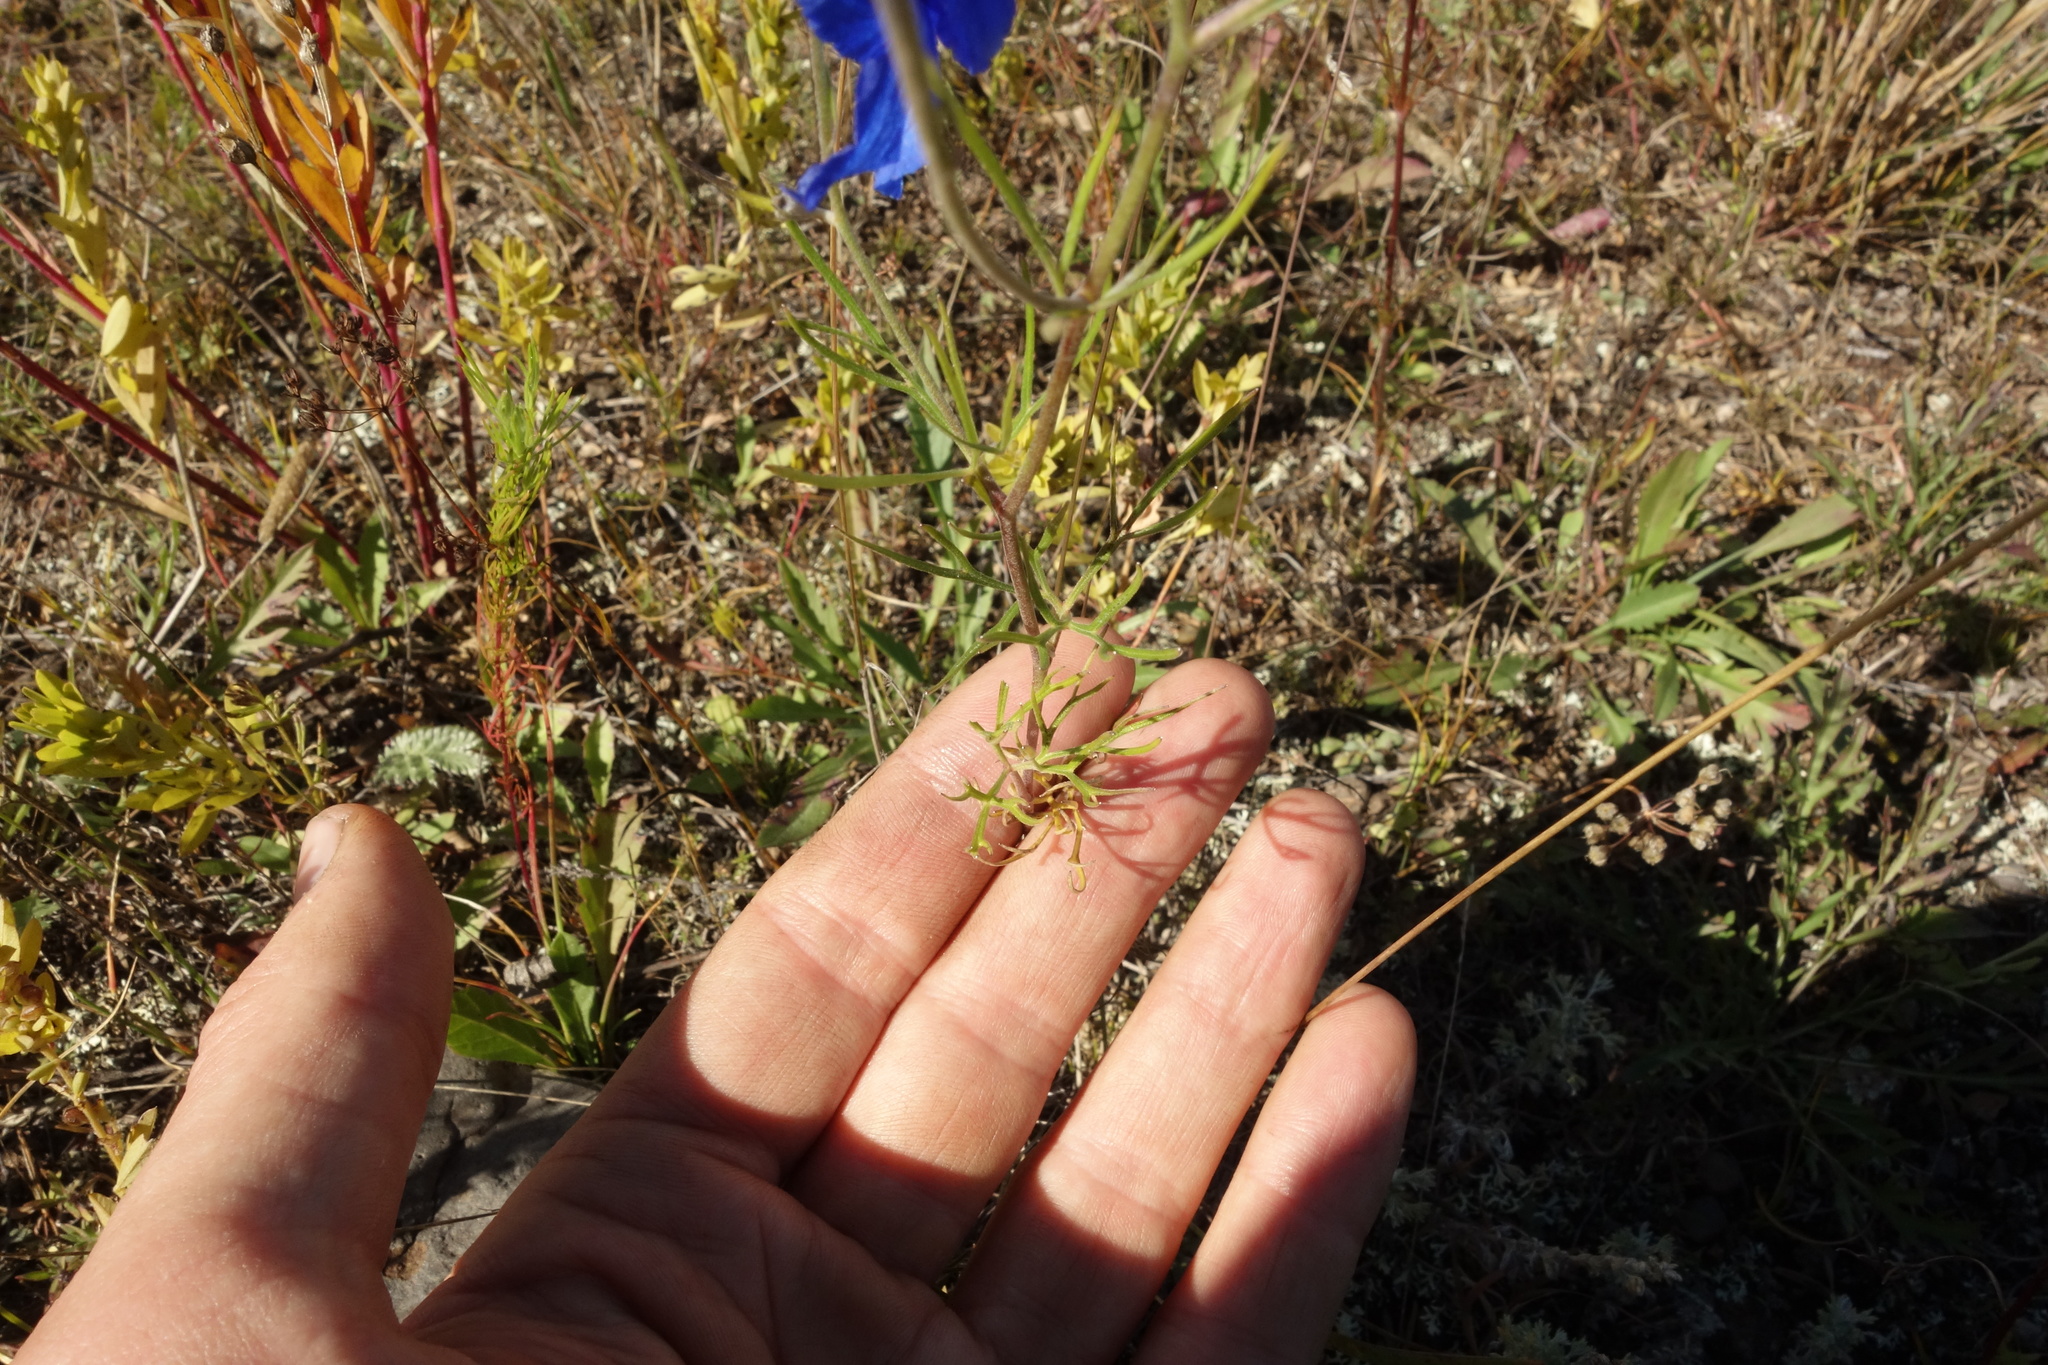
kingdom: Plantae
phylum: Tracheophyta
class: Magnoliopsida
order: Ranunculales
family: Ranunculaceae
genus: Delphinium
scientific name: Delphinium grandiflorum
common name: Siberian larkspur
